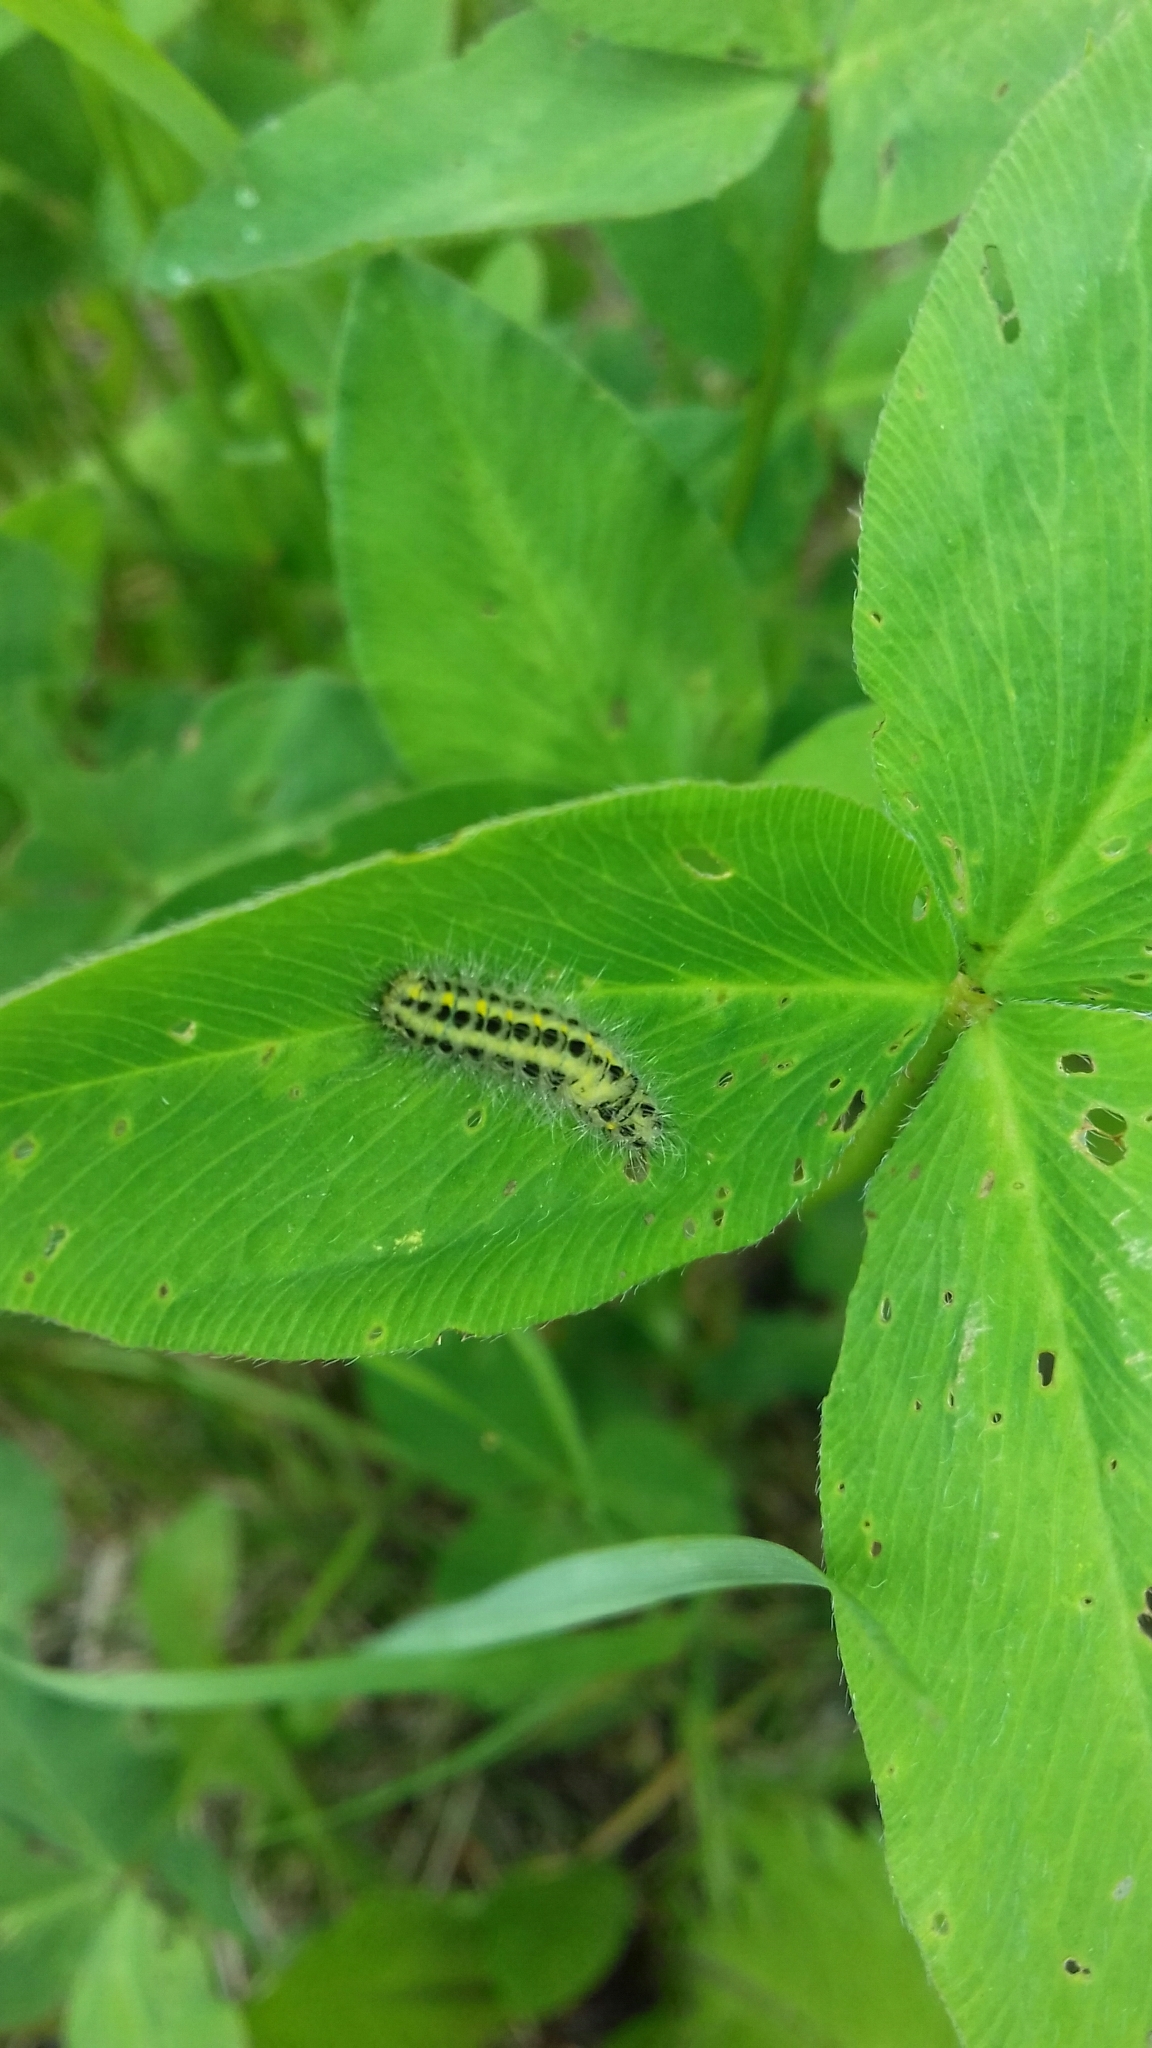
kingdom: Animalia
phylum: Arthropoda
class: Insecta
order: Lepidoptera
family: Zygaenidae
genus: Zygaena
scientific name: Zygaena lonicerae
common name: Narrow-bordered five-spot burnet
